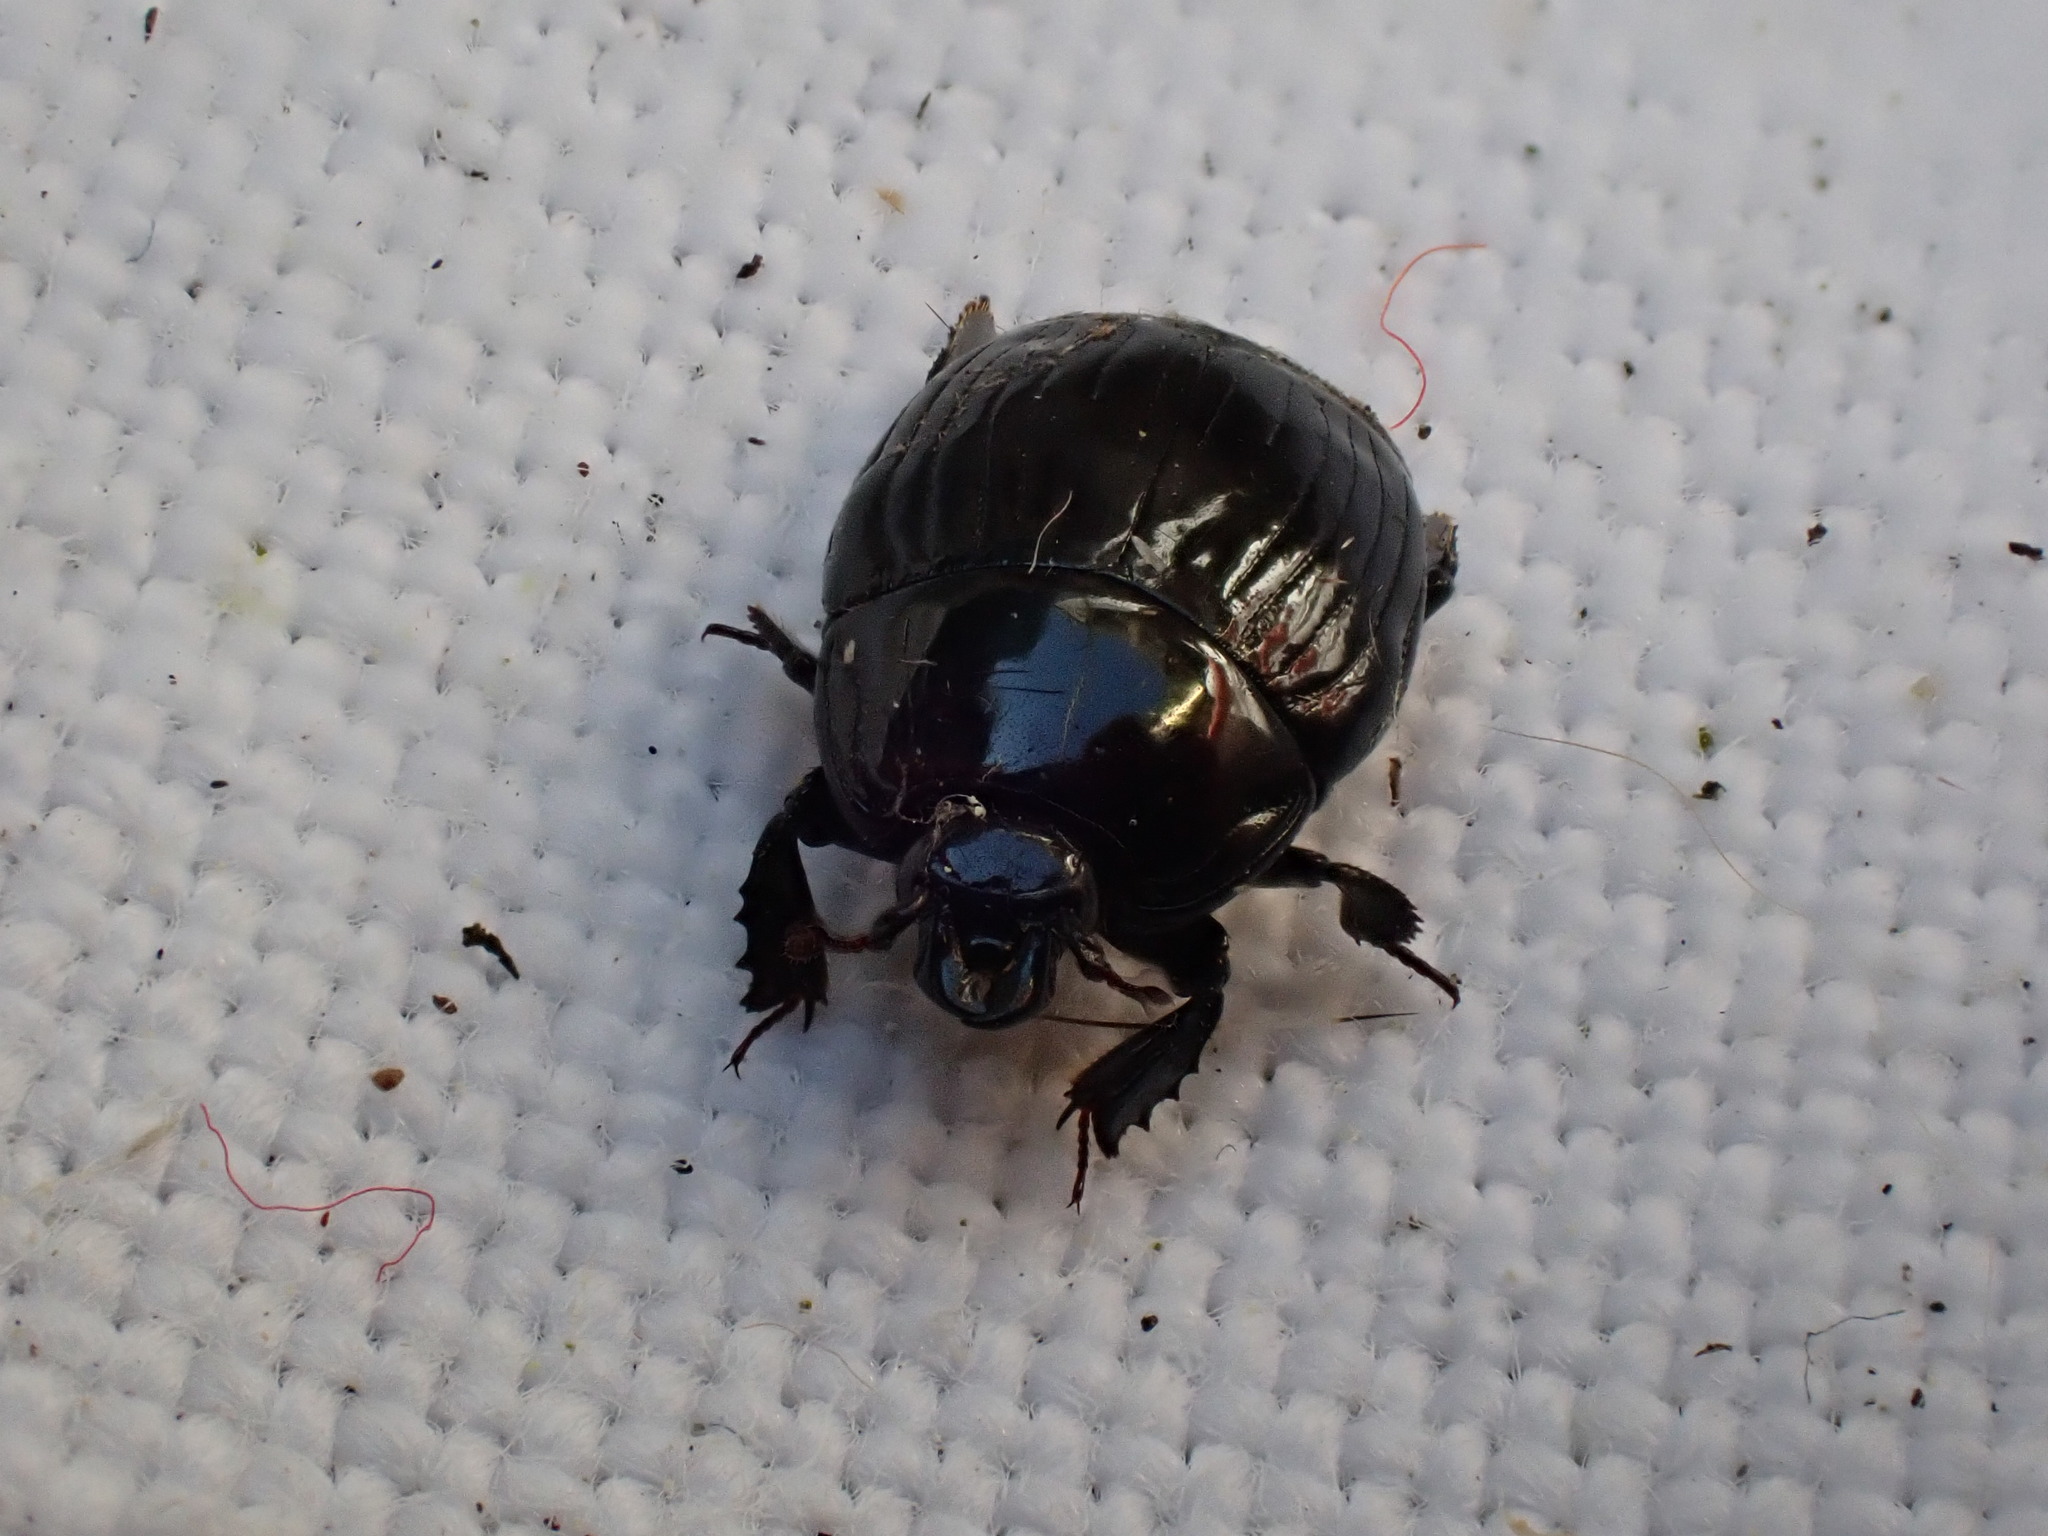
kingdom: Animalia
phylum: Arthropoda
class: Insecta
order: Coleoptera
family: Histeridae
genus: Margarinotus
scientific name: Margarinotus merdarius
